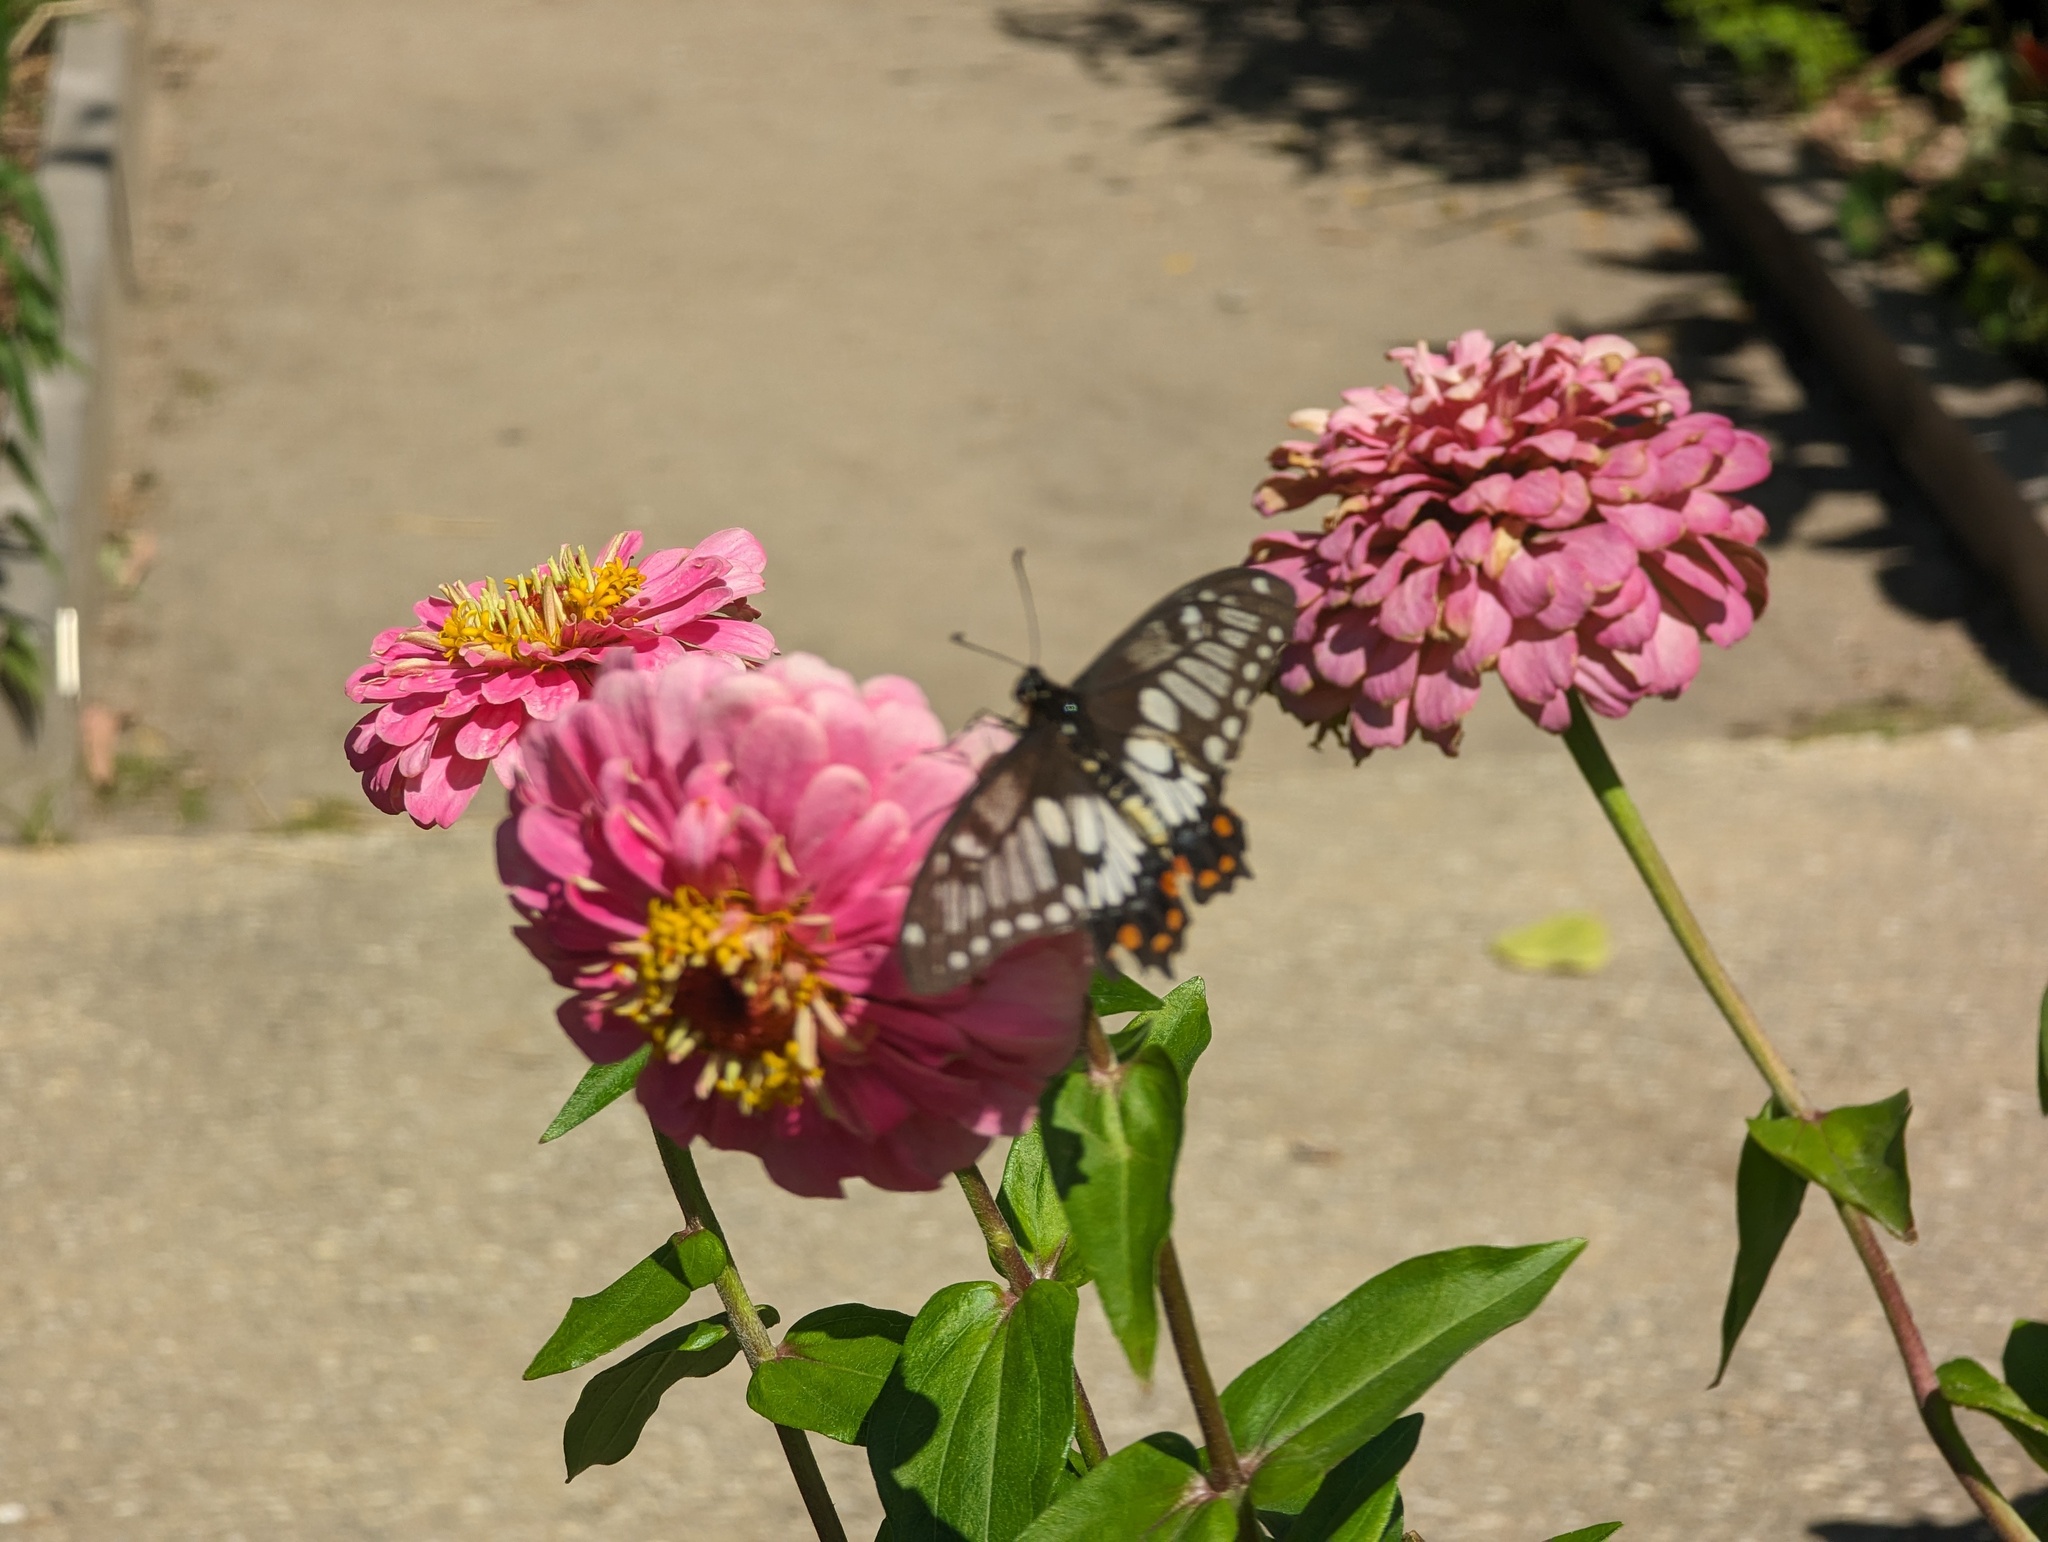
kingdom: Animalia
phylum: Arthropoda
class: Insecta
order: Lepidoptera
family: Papilionidae
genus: Papilio
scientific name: Papilio anactus
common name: Dingy swallowtail
